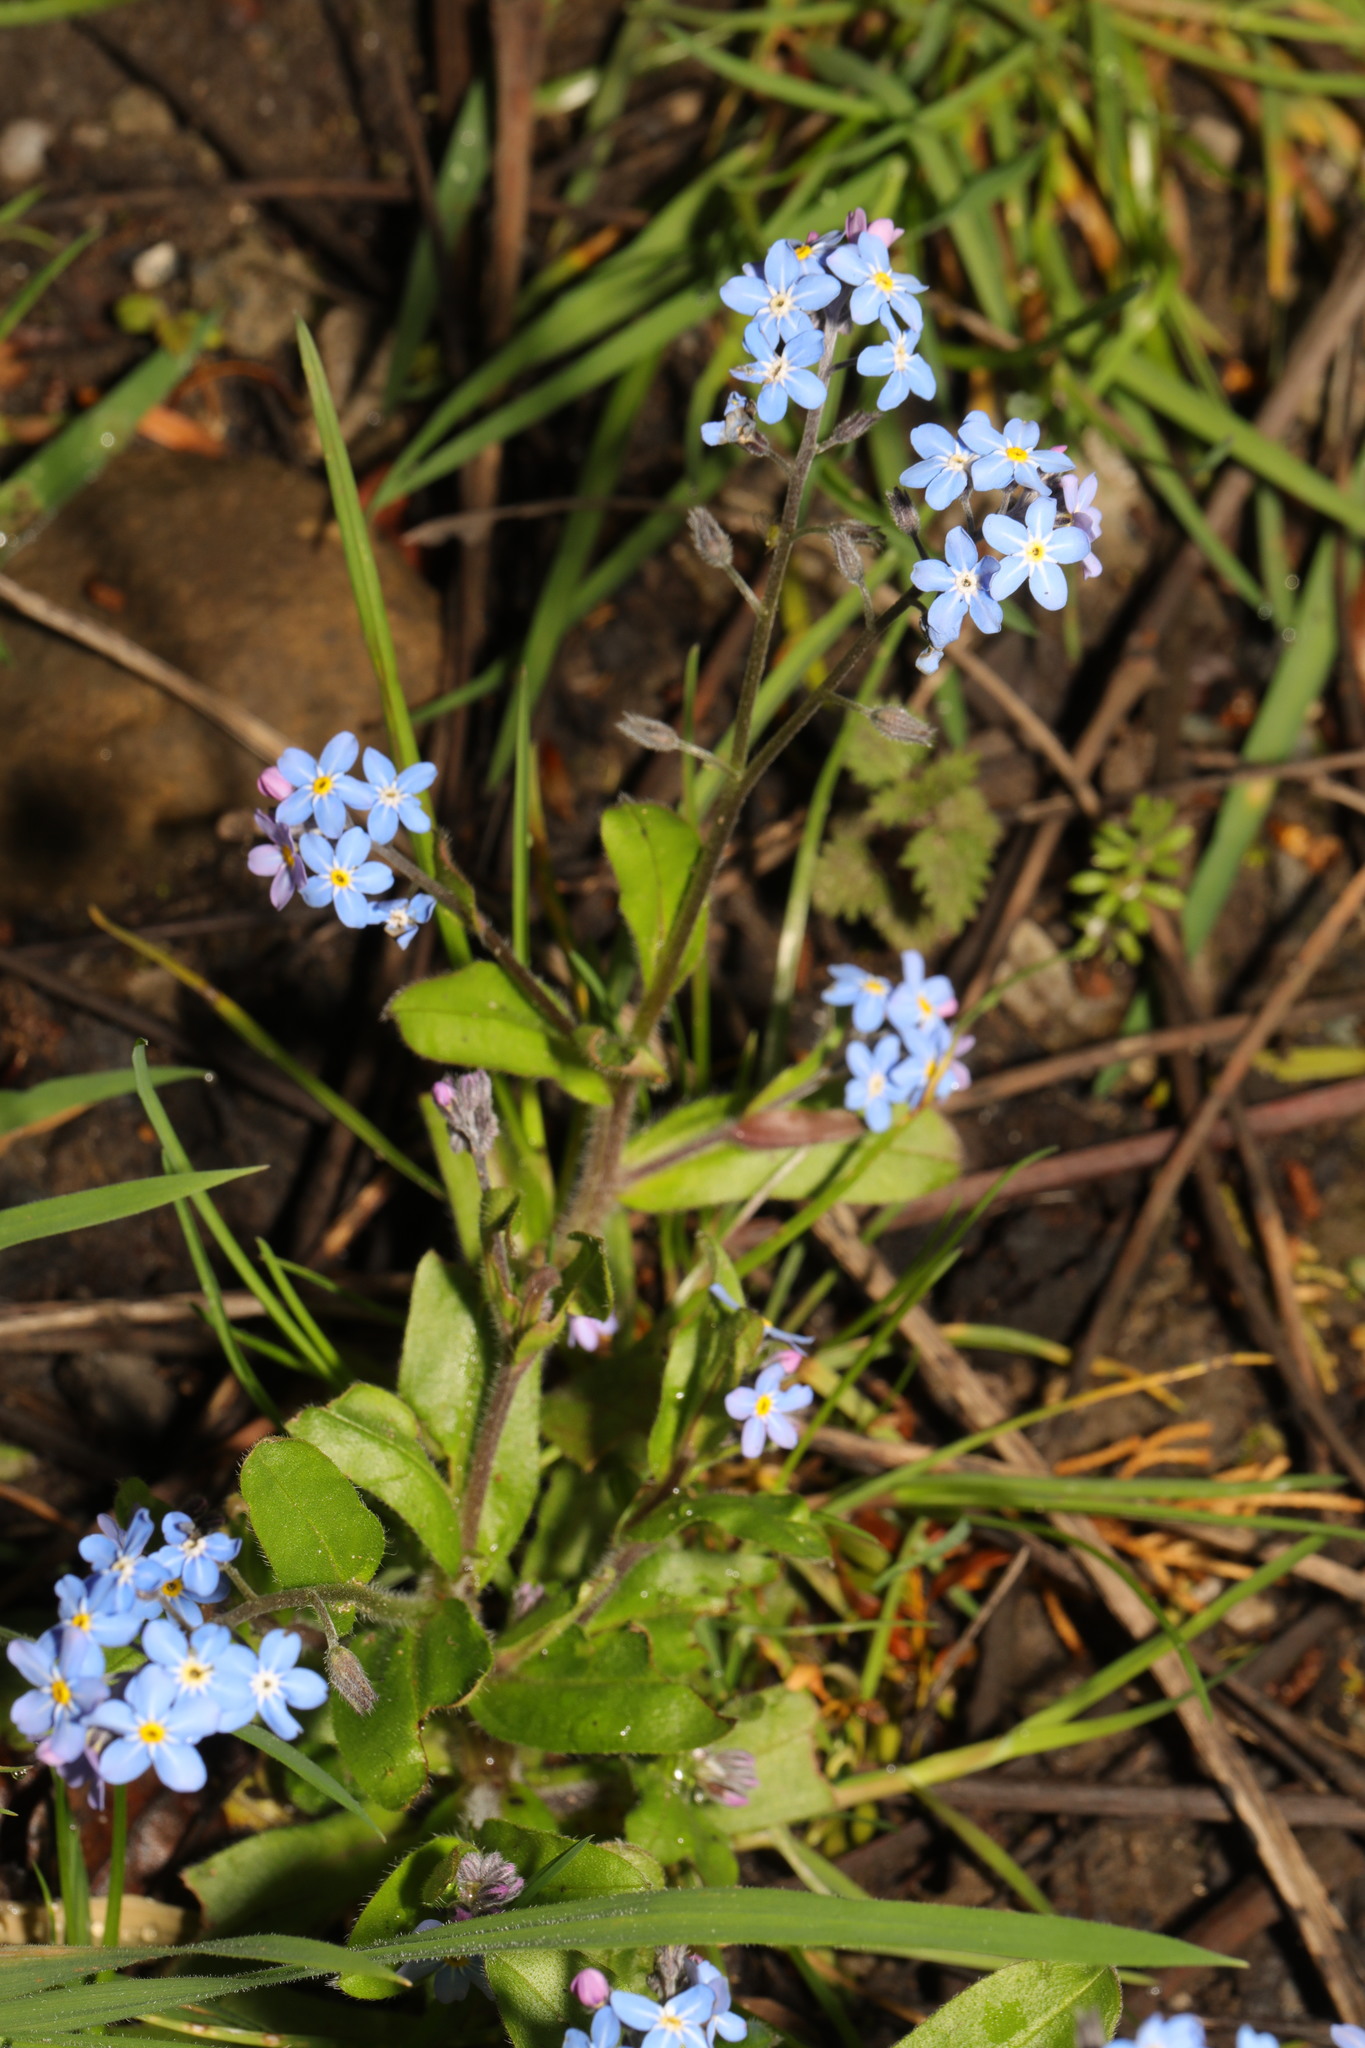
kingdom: Plantae
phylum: Tracheophyta
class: Magnoliopsida
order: Boraginales
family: Boraginaceae
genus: Myosotis
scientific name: Myosotis sylvatica
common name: Wood forget-me-not
